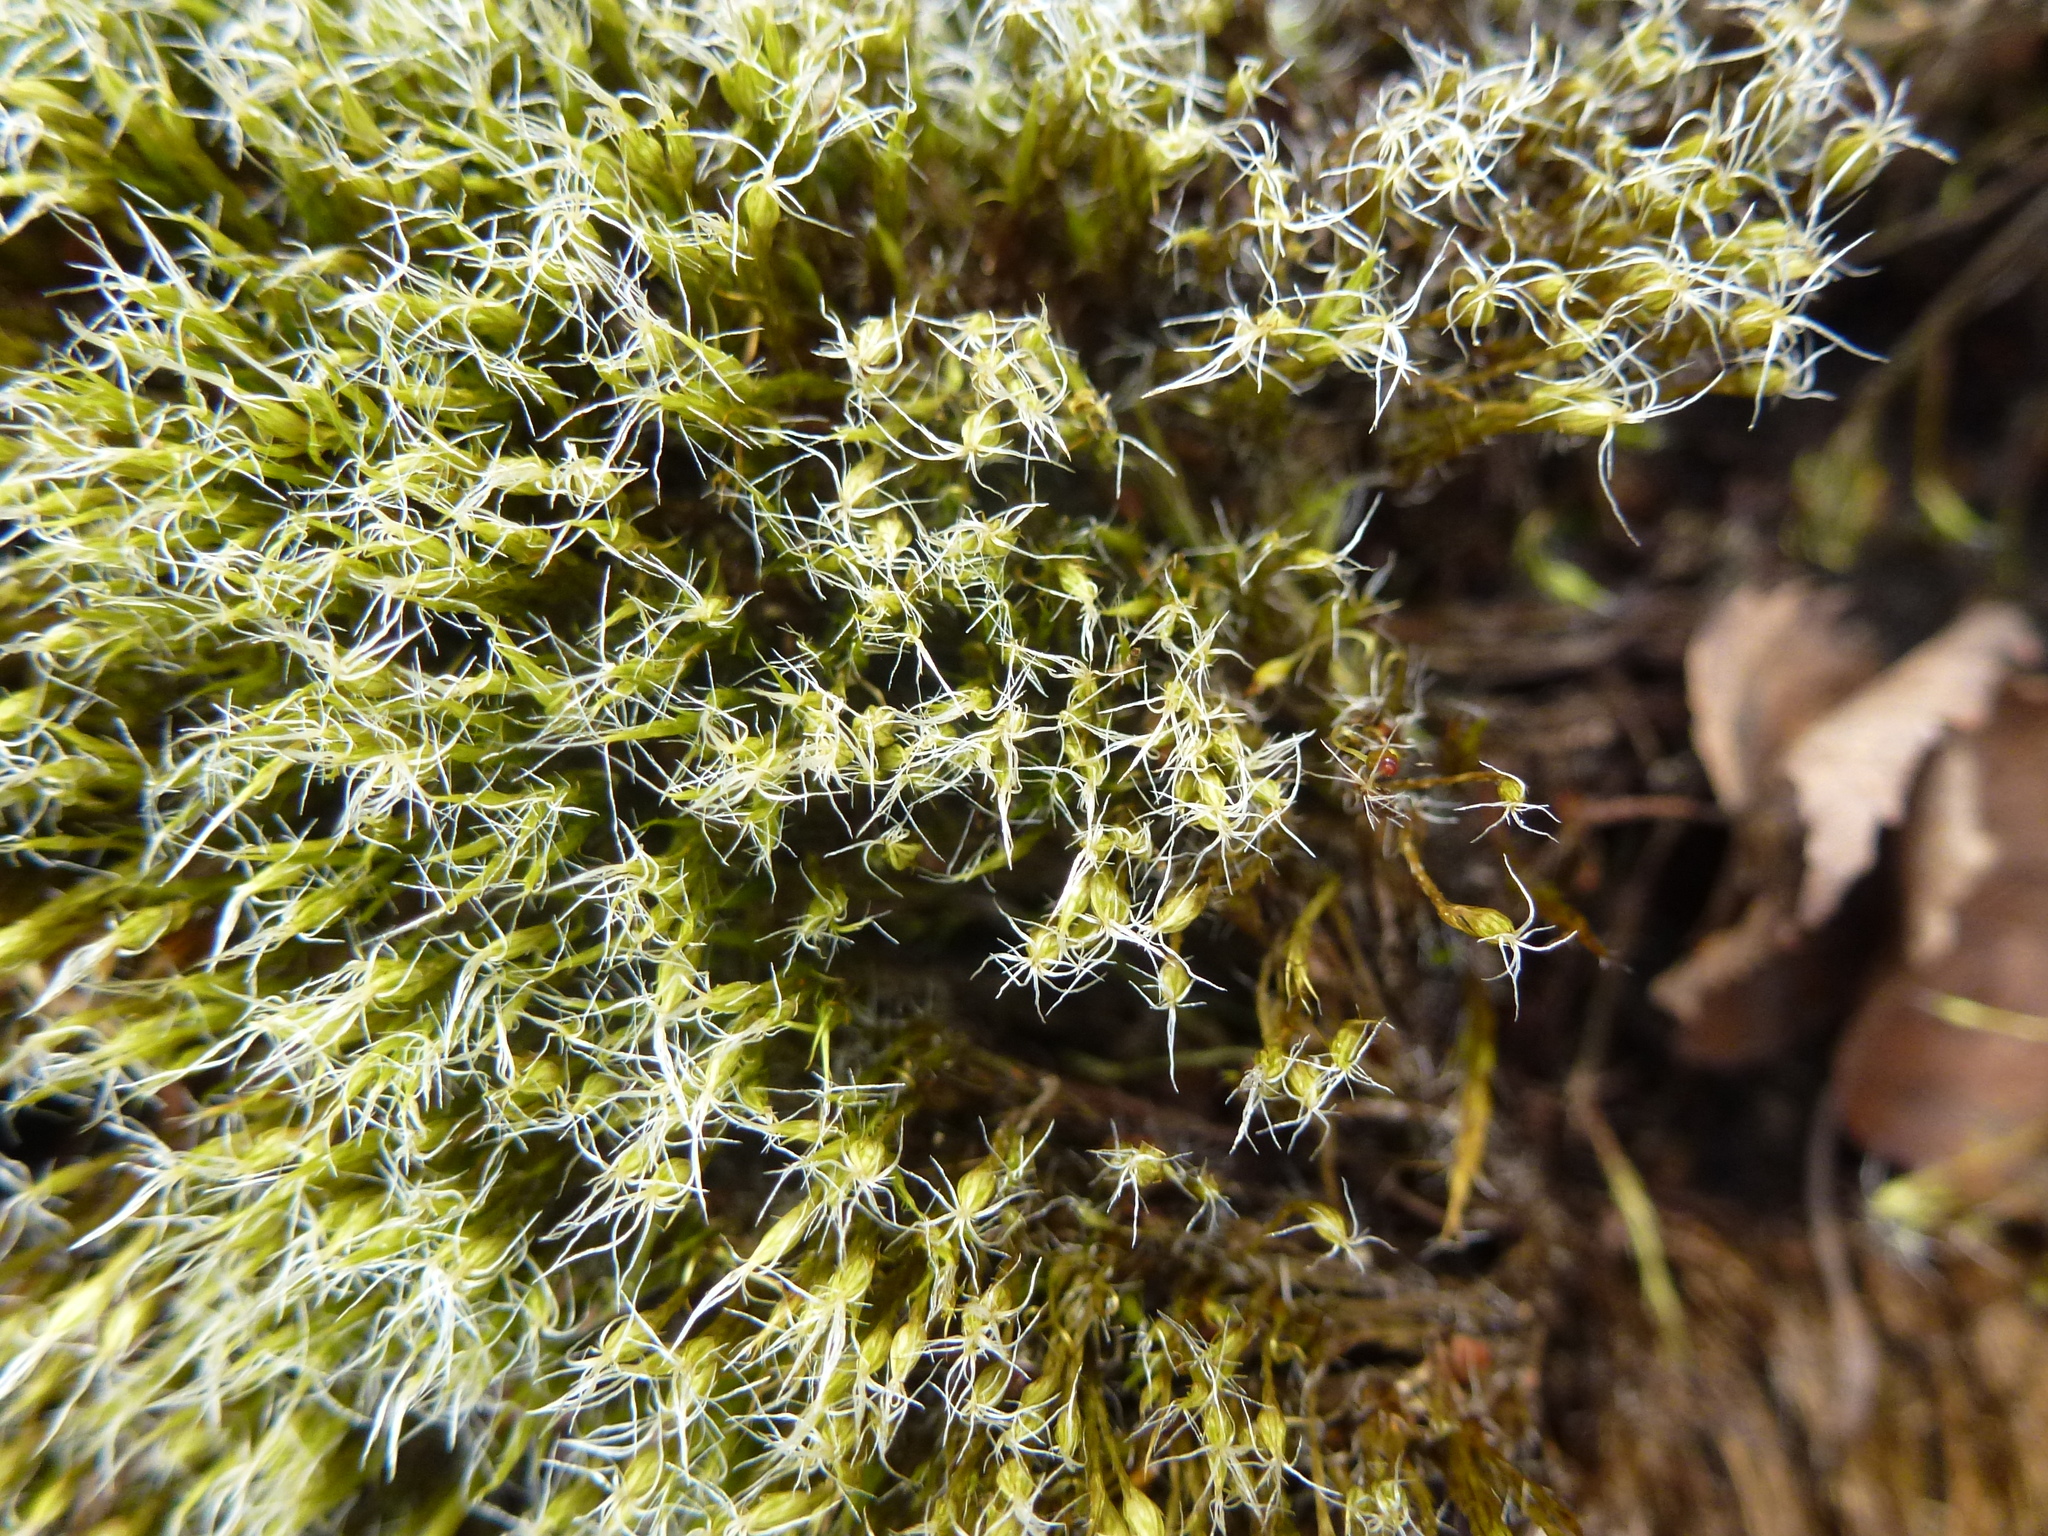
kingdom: Plantae
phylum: Bryophyta
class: Bryopsida
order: Dicranales
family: Leucobryaceae
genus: Campylopus
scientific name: Campylopus introflexus
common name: Heath star moss
